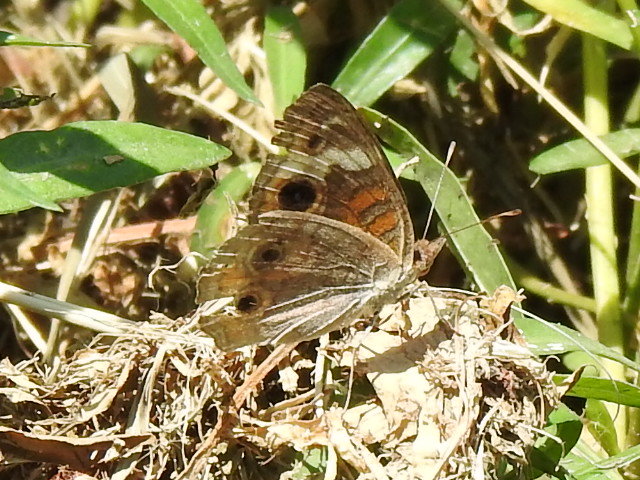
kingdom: Animalia
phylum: Arthropoda
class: Insecta
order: Lepidoptera
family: Nymphalidae
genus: Junonia
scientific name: Junonia coenia
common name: Common buckeye
